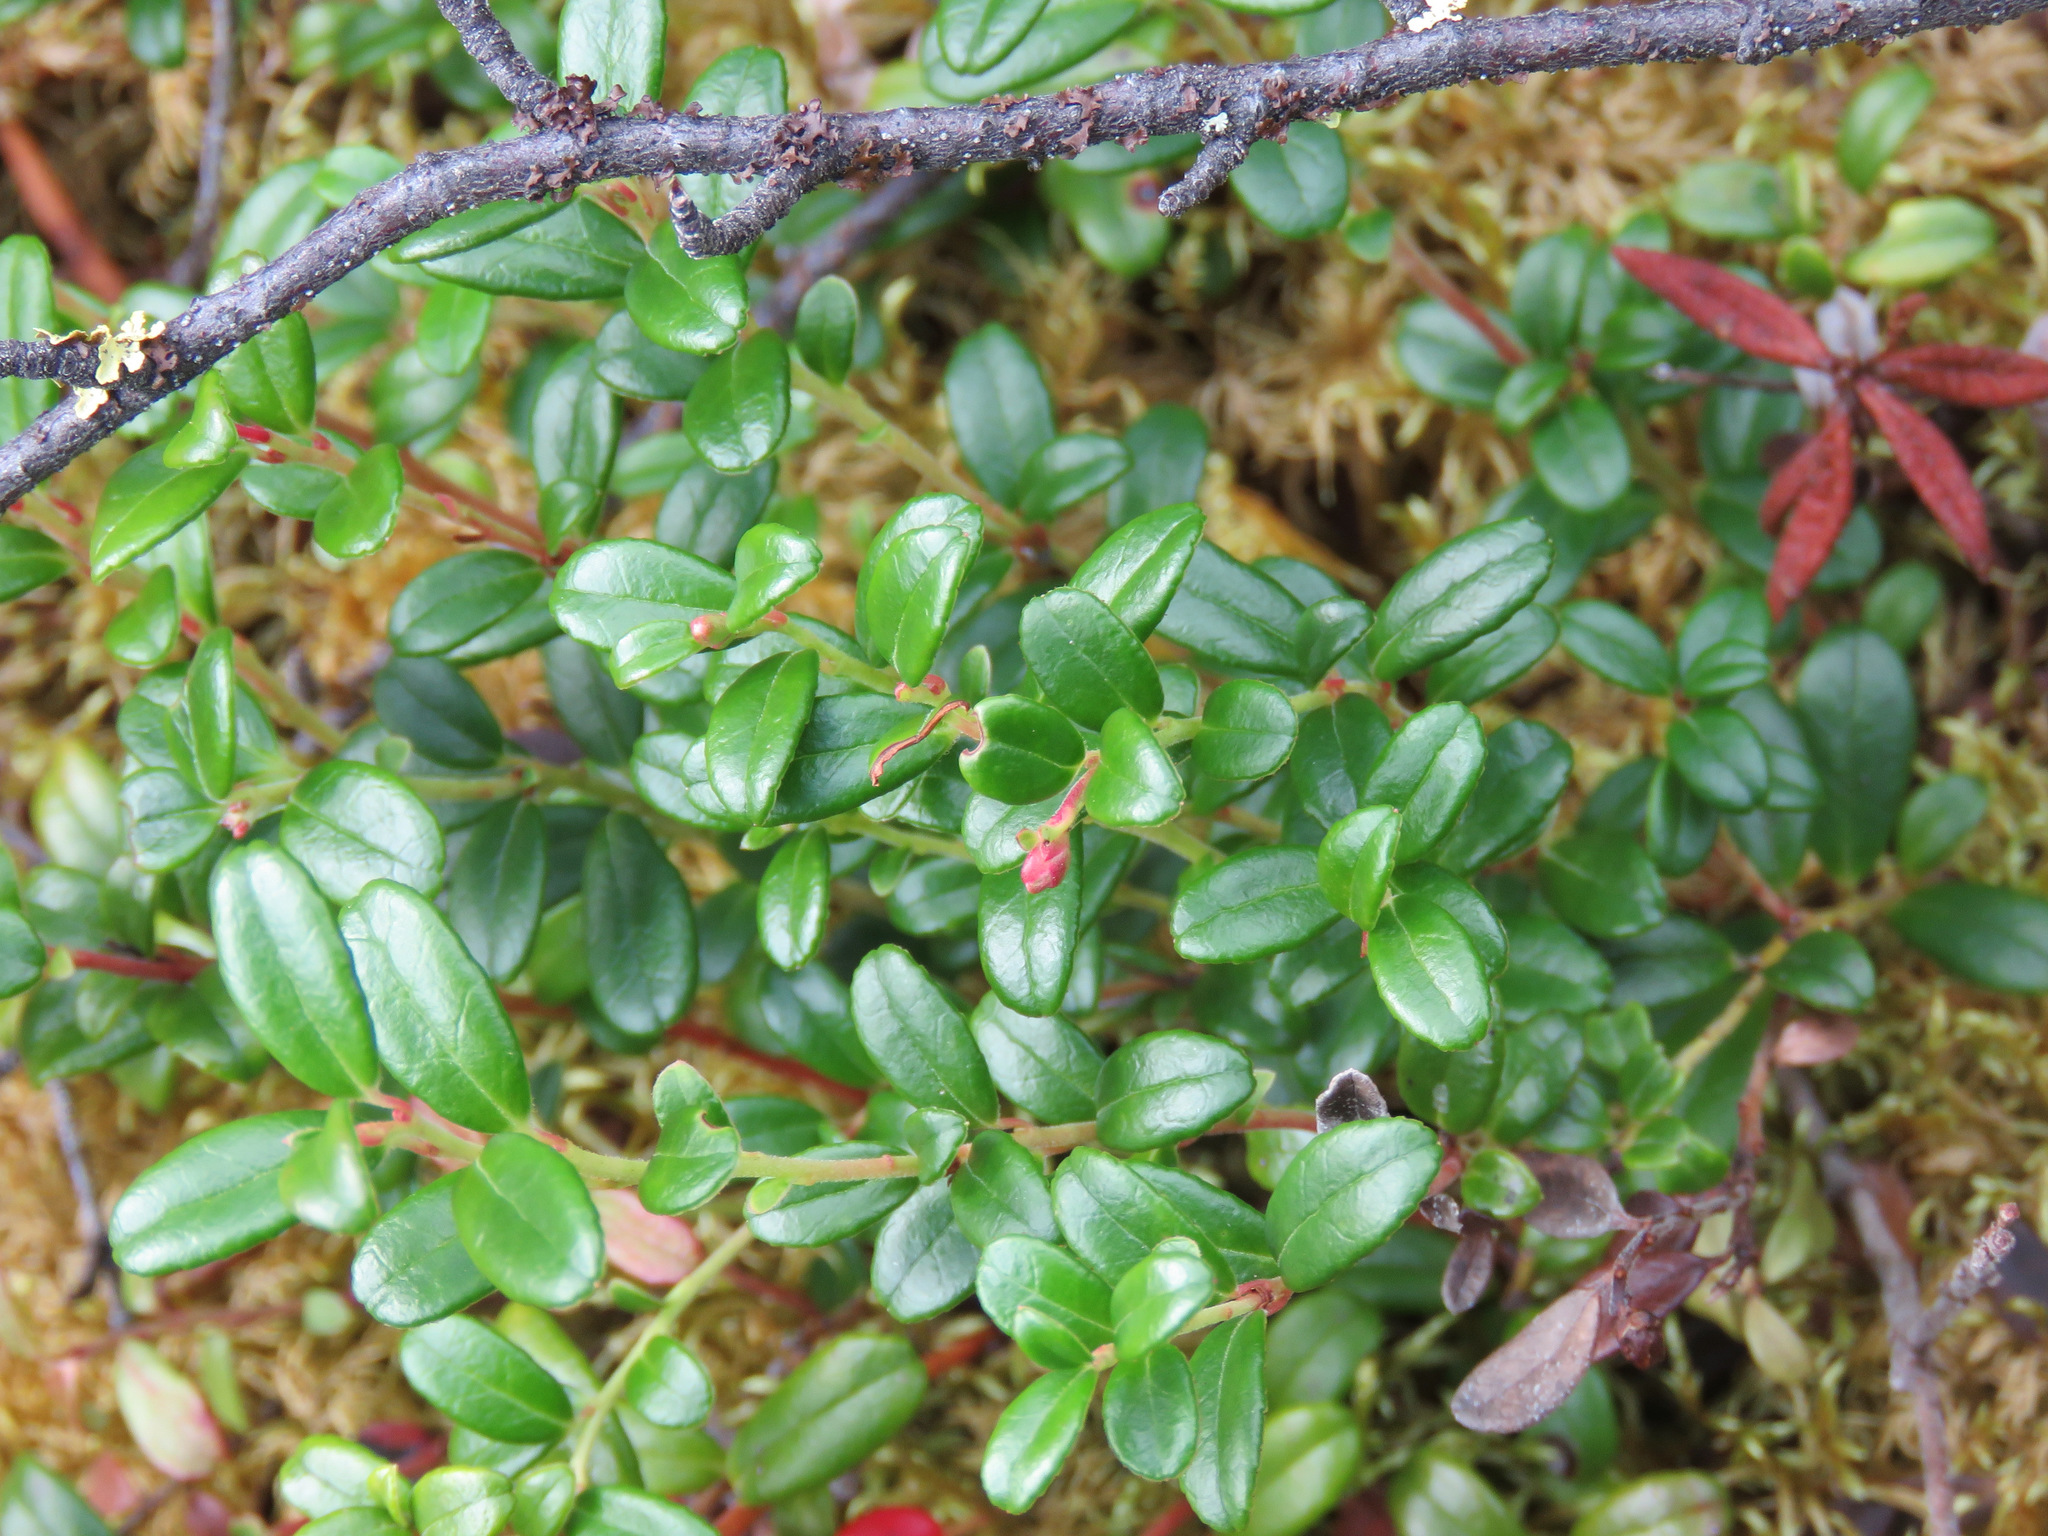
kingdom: Plantae
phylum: Tracheophyta
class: Magnoliopsida
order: Ericales
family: Ericaceae
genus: Vaccinium
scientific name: Vaccinium vitis-idaea
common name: Cowberry
